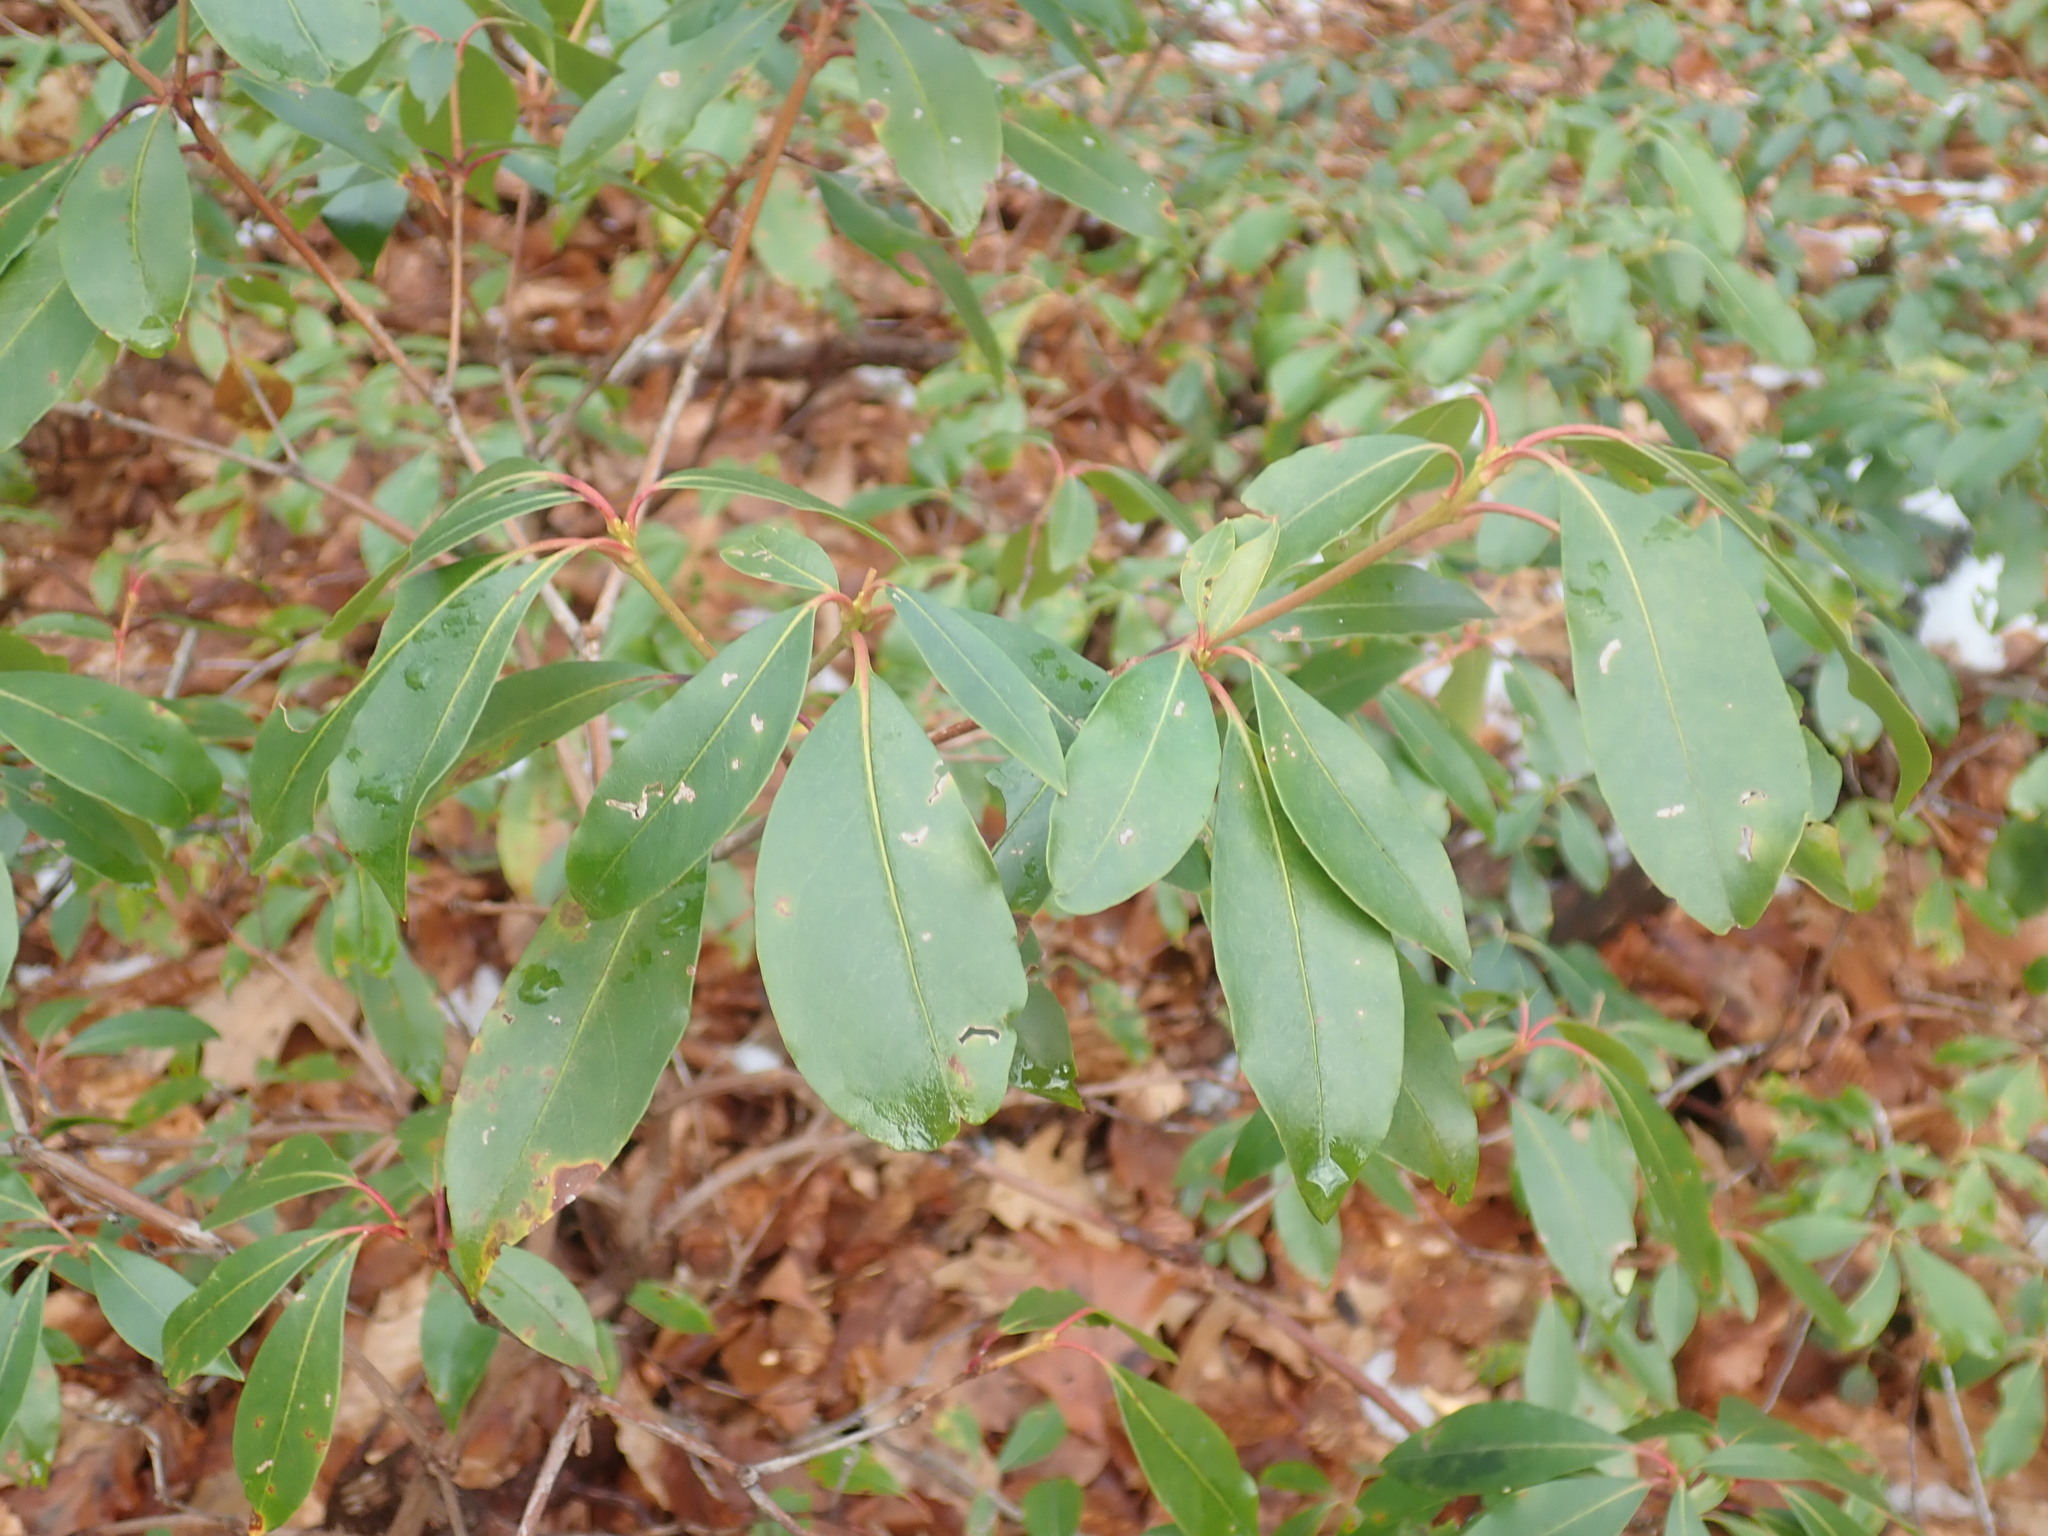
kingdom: Plantae
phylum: Tracheophyta
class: Magnoliopsida
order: Ericales
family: Ericaceae
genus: Kalmia
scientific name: Kalmia latifolia
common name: Mountain-laurel
